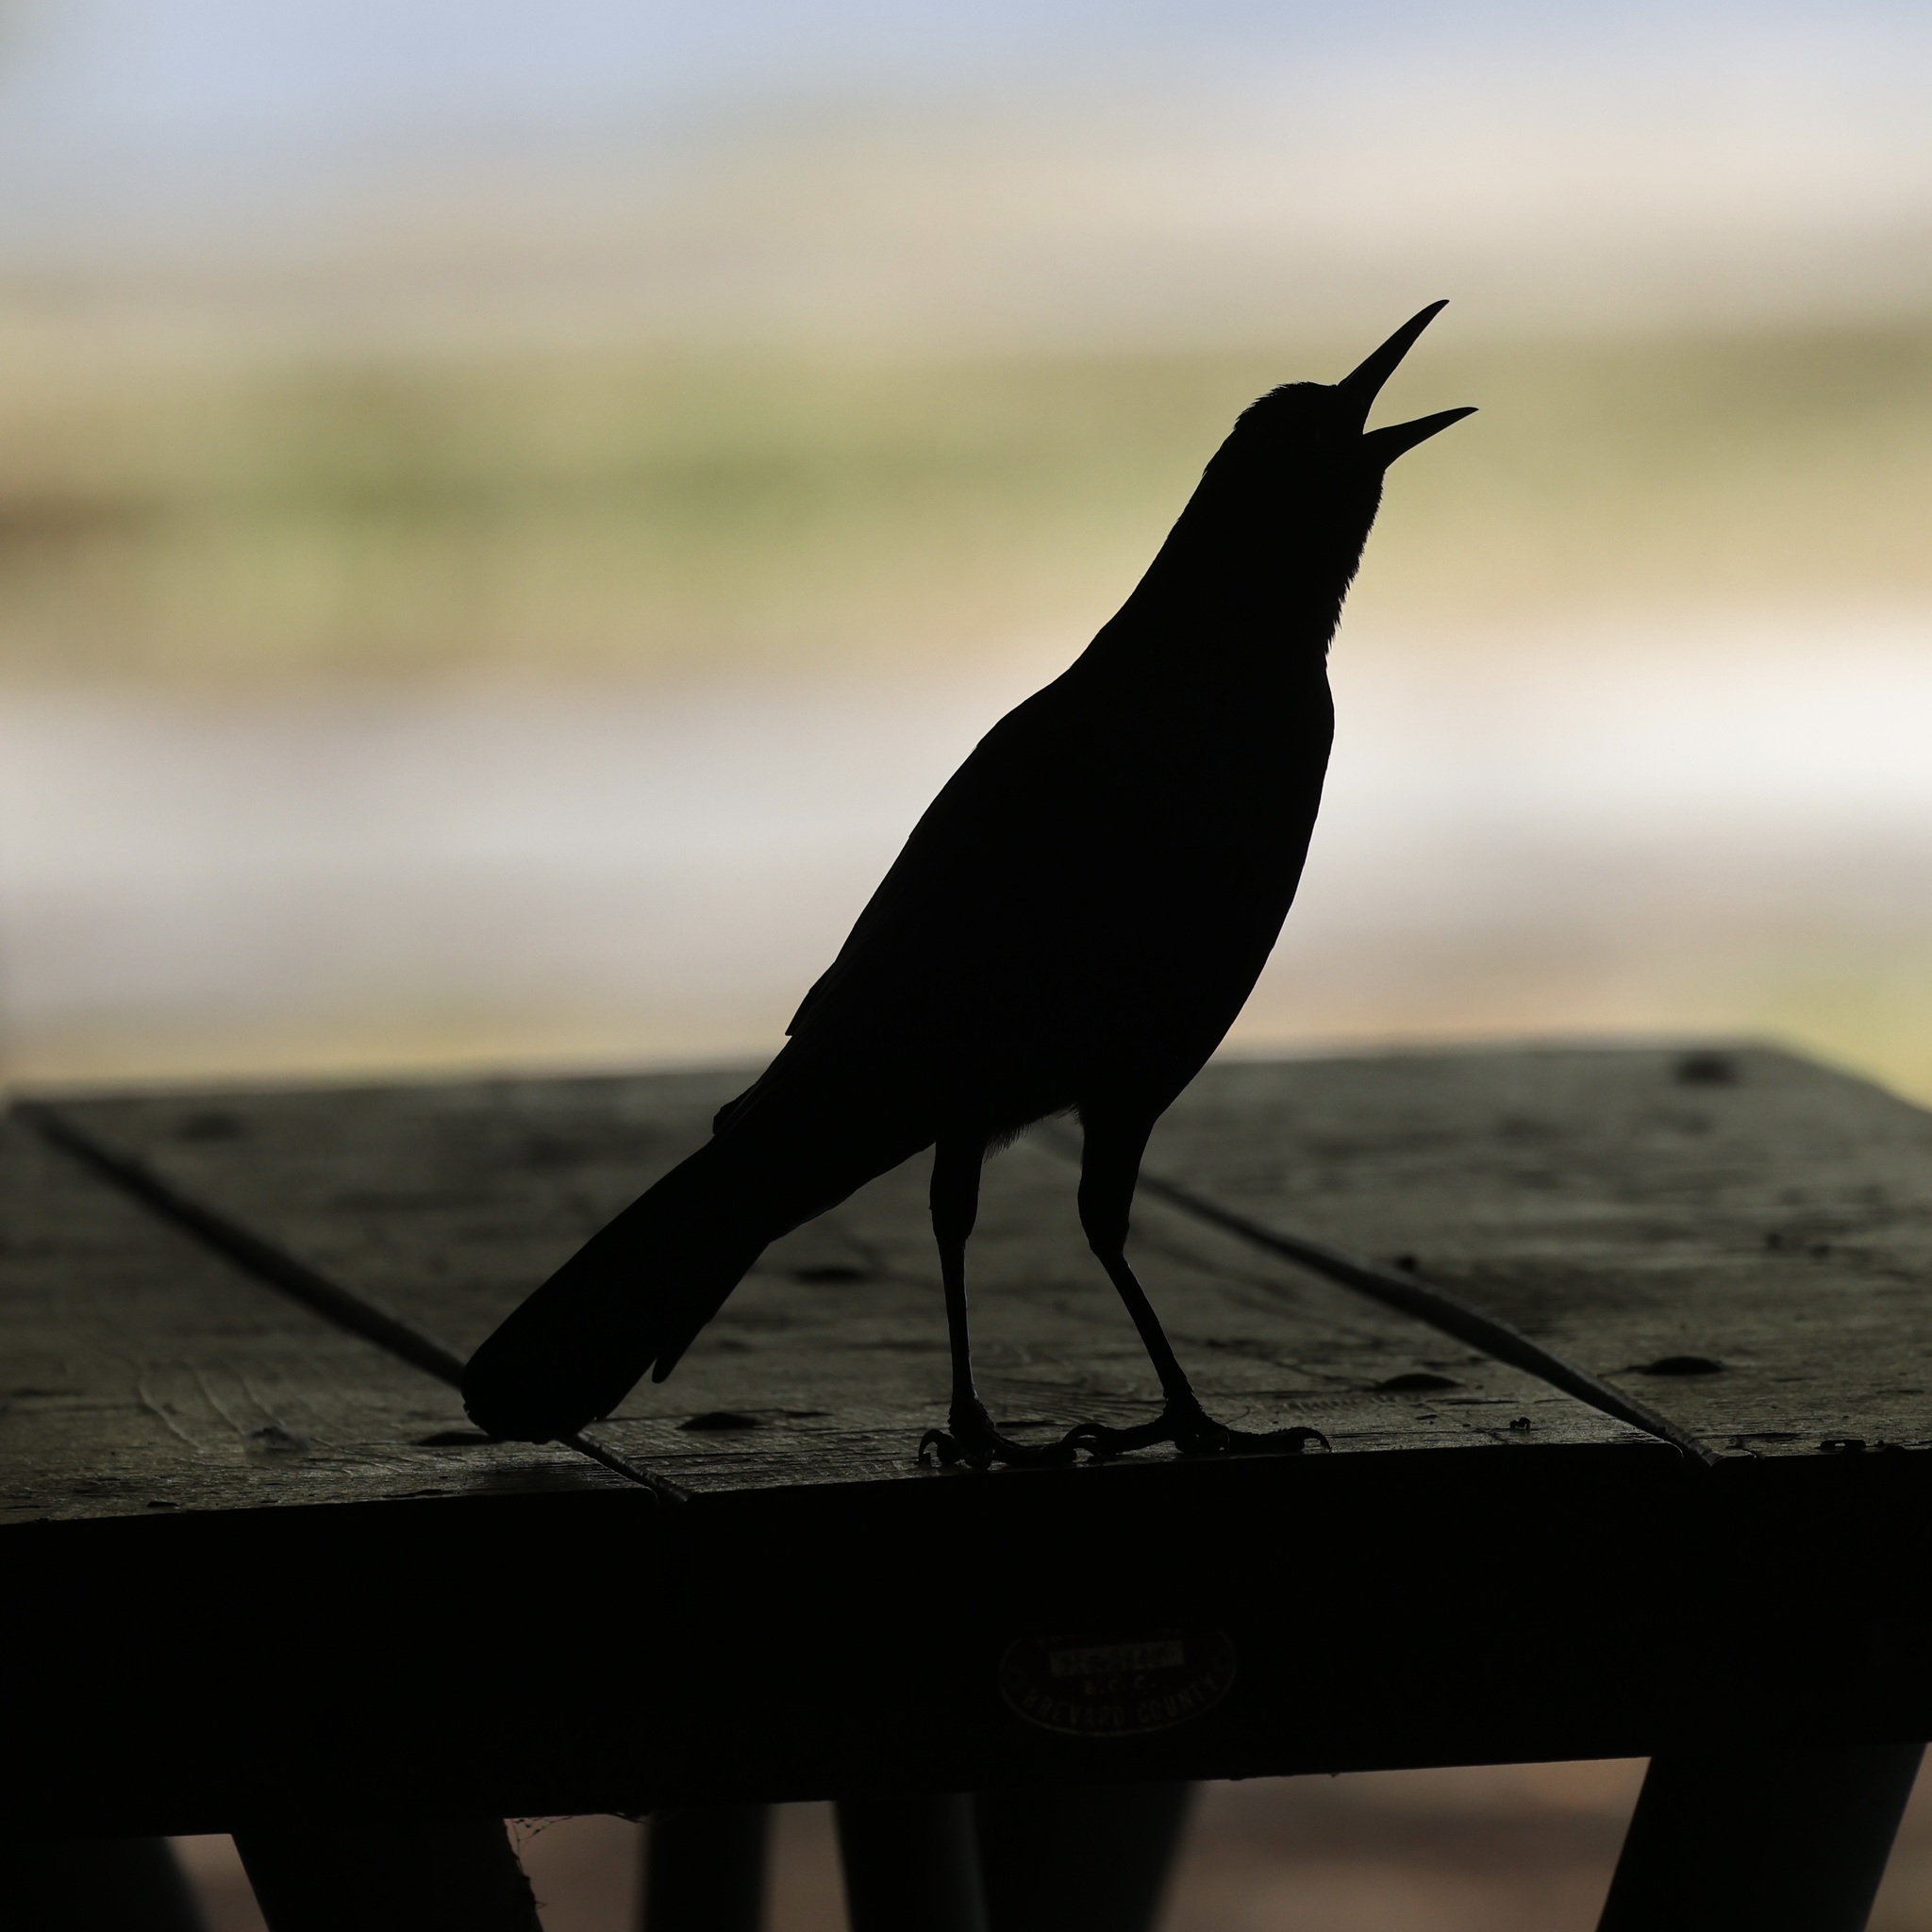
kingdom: Animalia
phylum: Chordata
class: Aves
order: Passeriformes
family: Icteridae
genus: Quiscalus
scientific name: Quiscalus major
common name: Boat-tailed grackle
